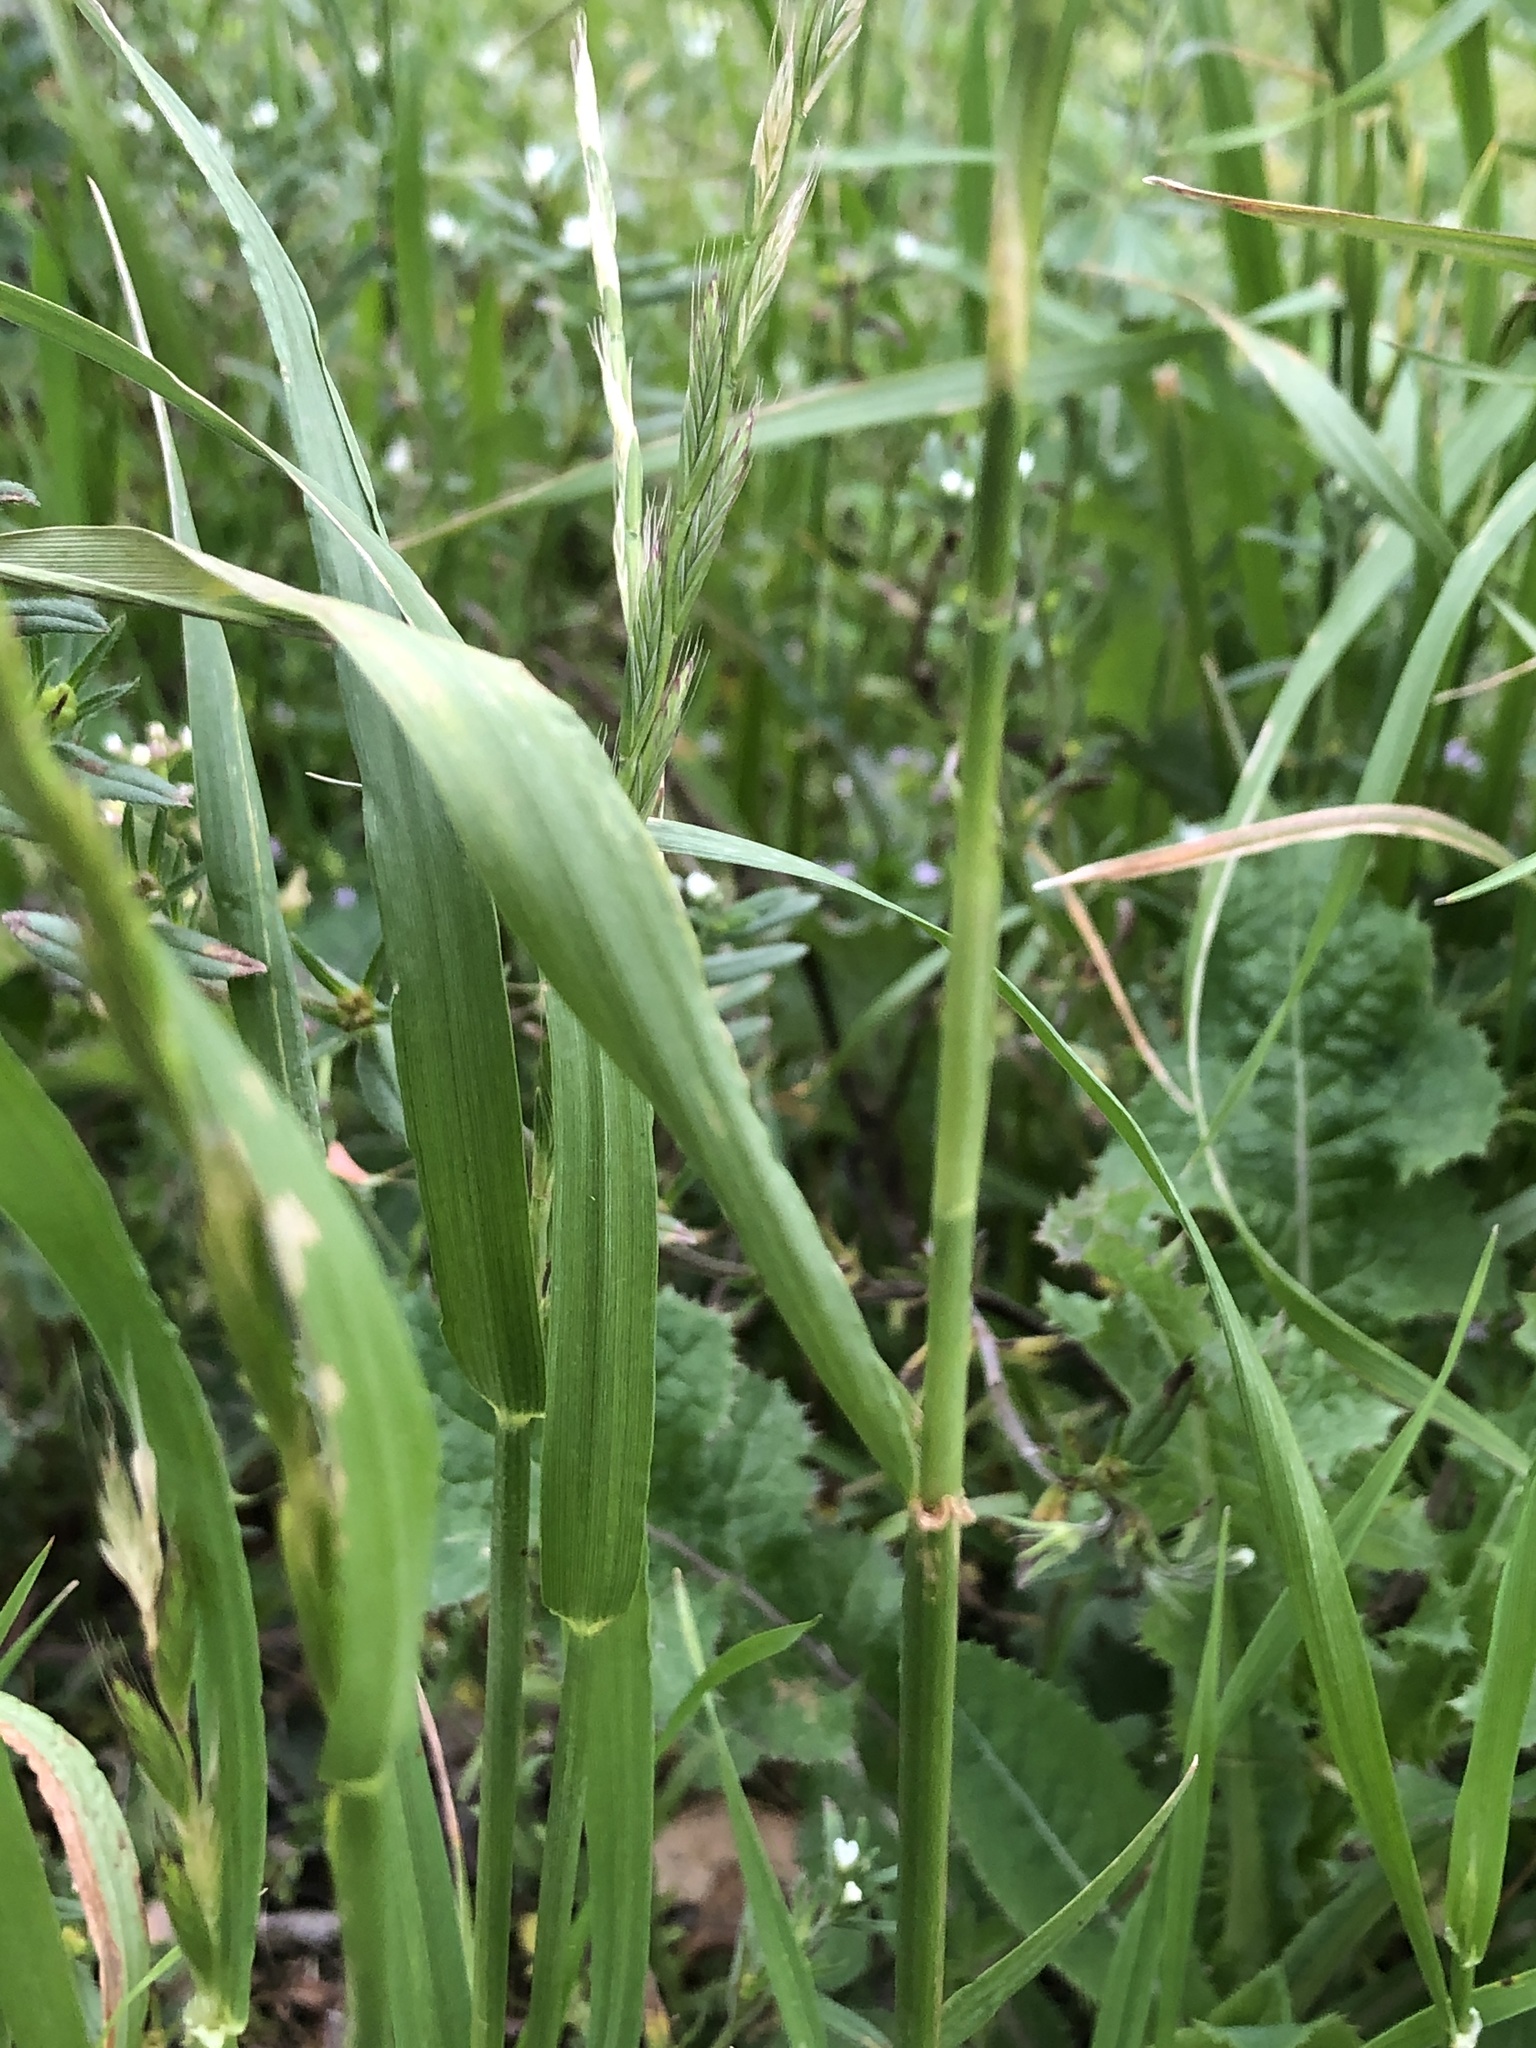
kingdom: Plantae
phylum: Tracheophyta
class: Liliopsida
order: Poales
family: Poaceae
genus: Lolium
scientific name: Lolium perenne
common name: Perennial ryegrass
